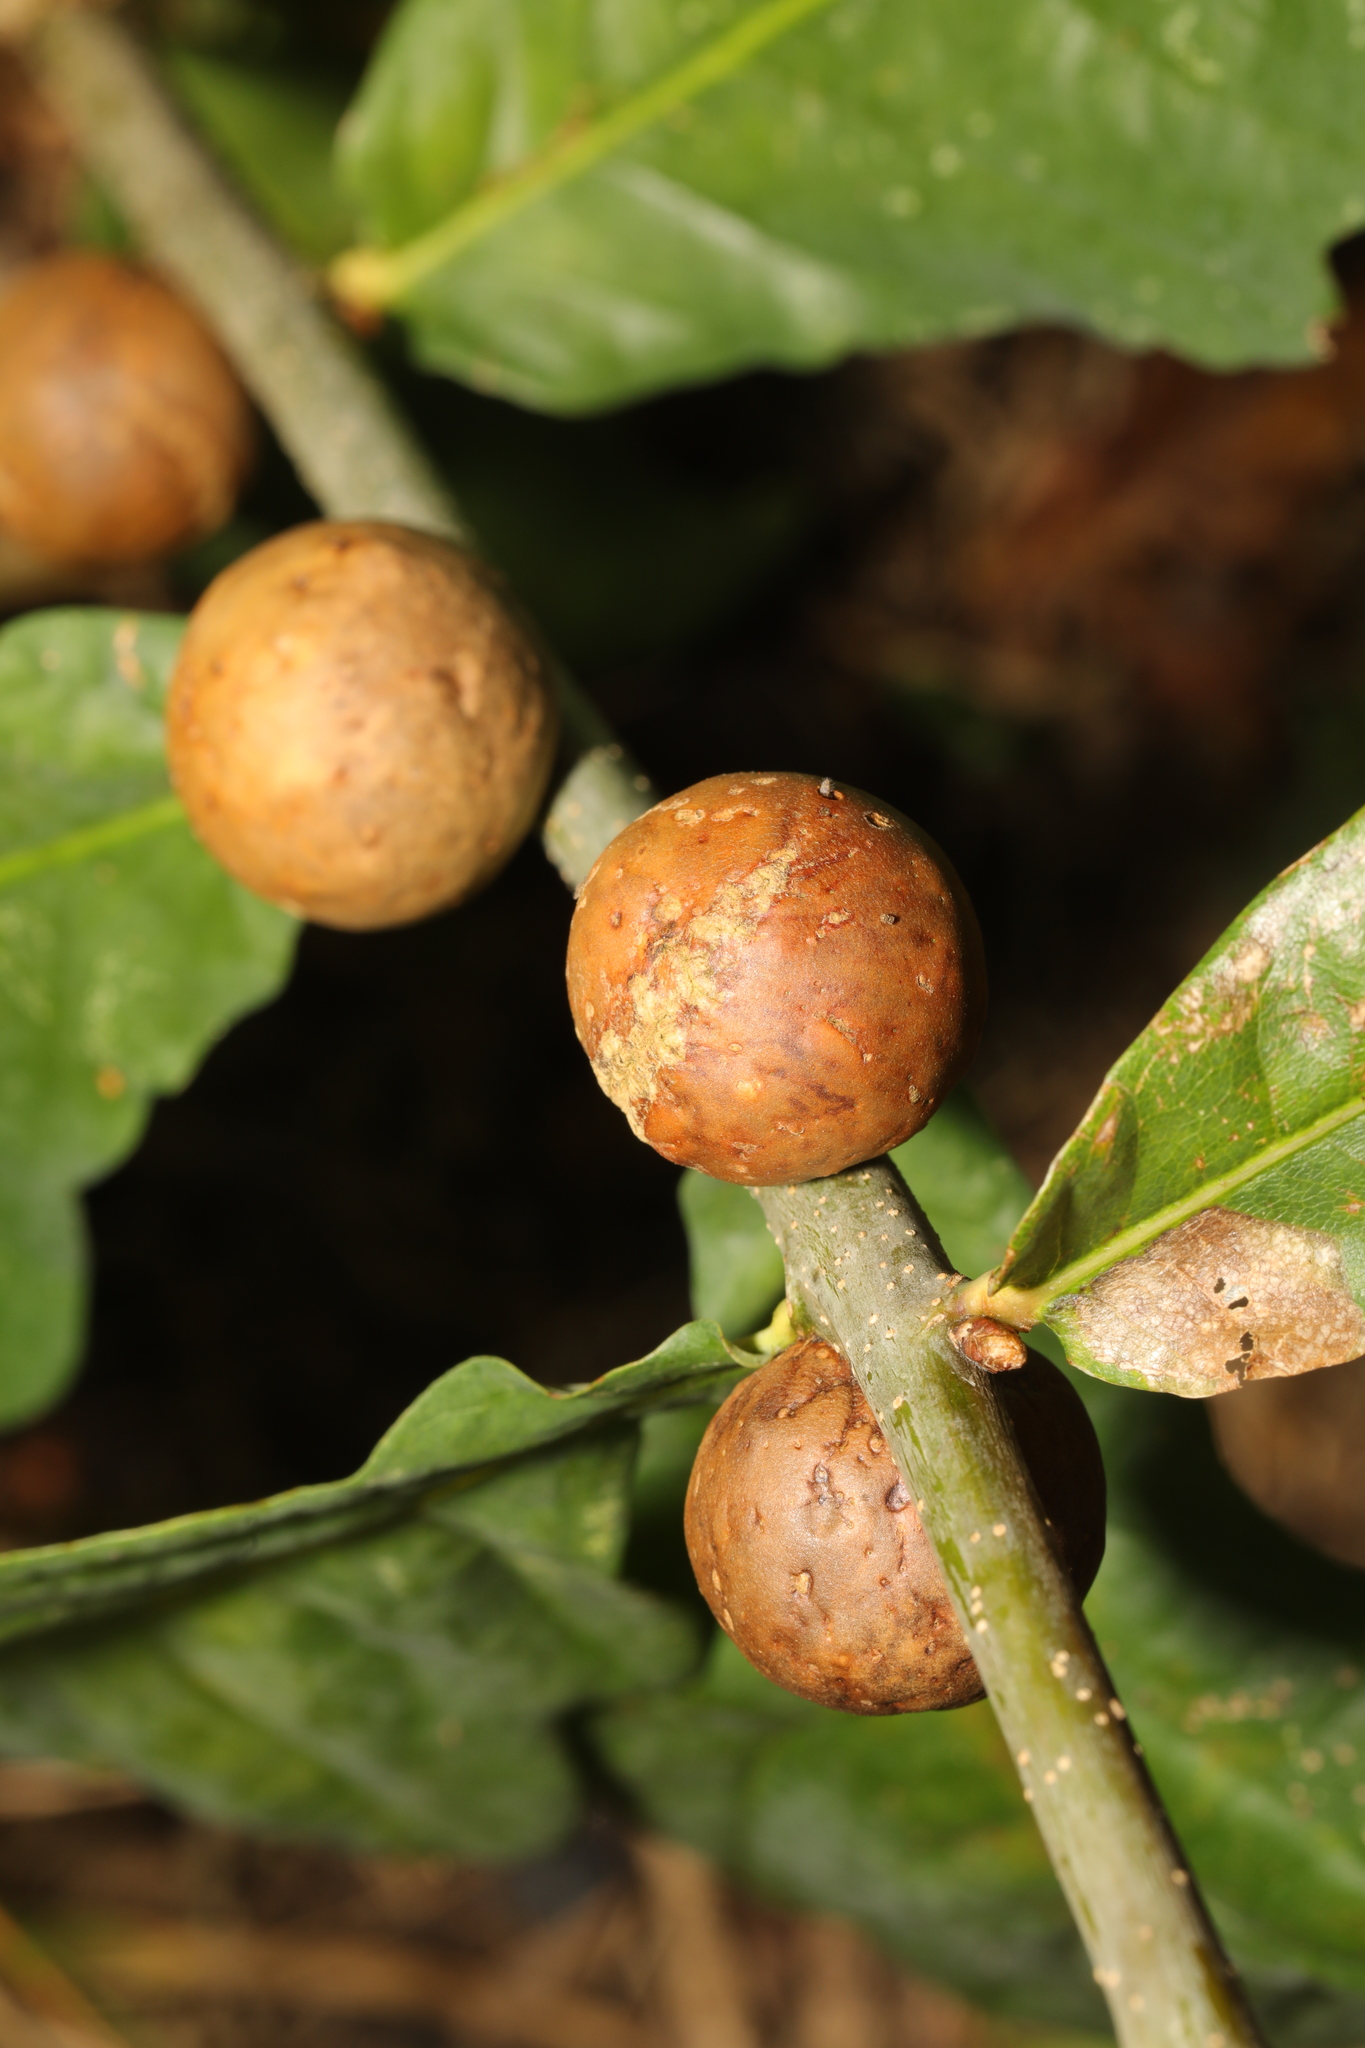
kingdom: Animalia
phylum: Arthropoda
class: Insecta
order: Hymenoptera
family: Cynipidae
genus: Andricus
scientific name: Andricus kollari
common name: Marble gall
